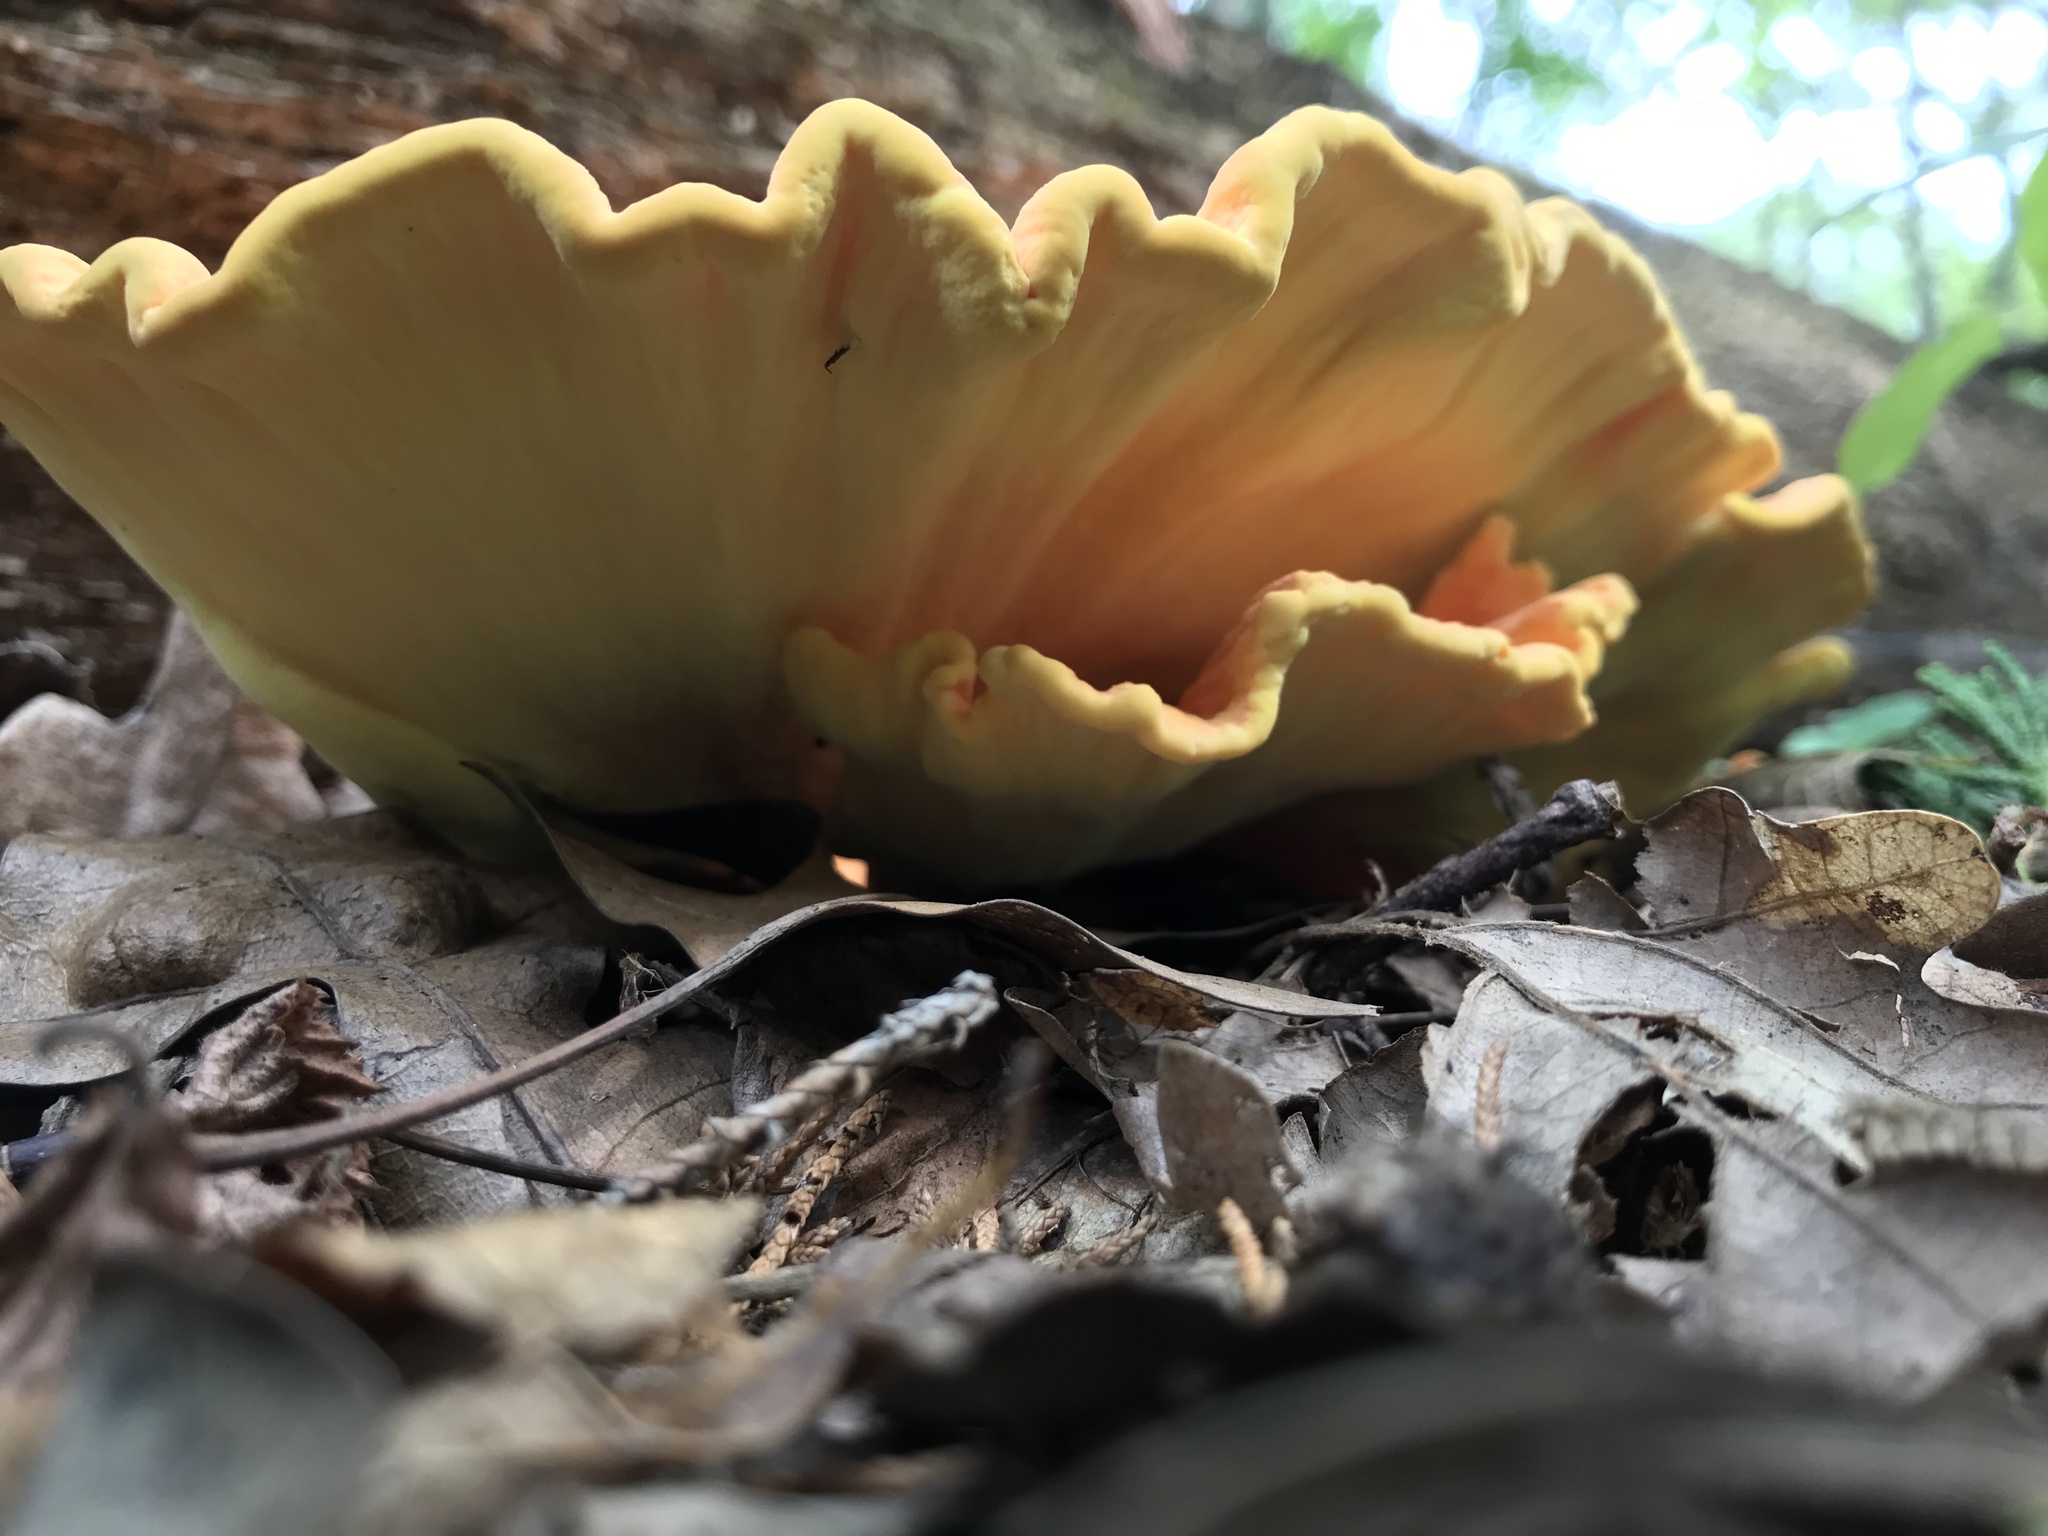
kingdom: Fungi
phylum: Basidiomycota
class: Agaricomycetes
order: Polyporales
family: Laetiporaceae
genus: Laetiporus
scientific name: Laetiporus sulphureus
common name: Chicken of the woods
